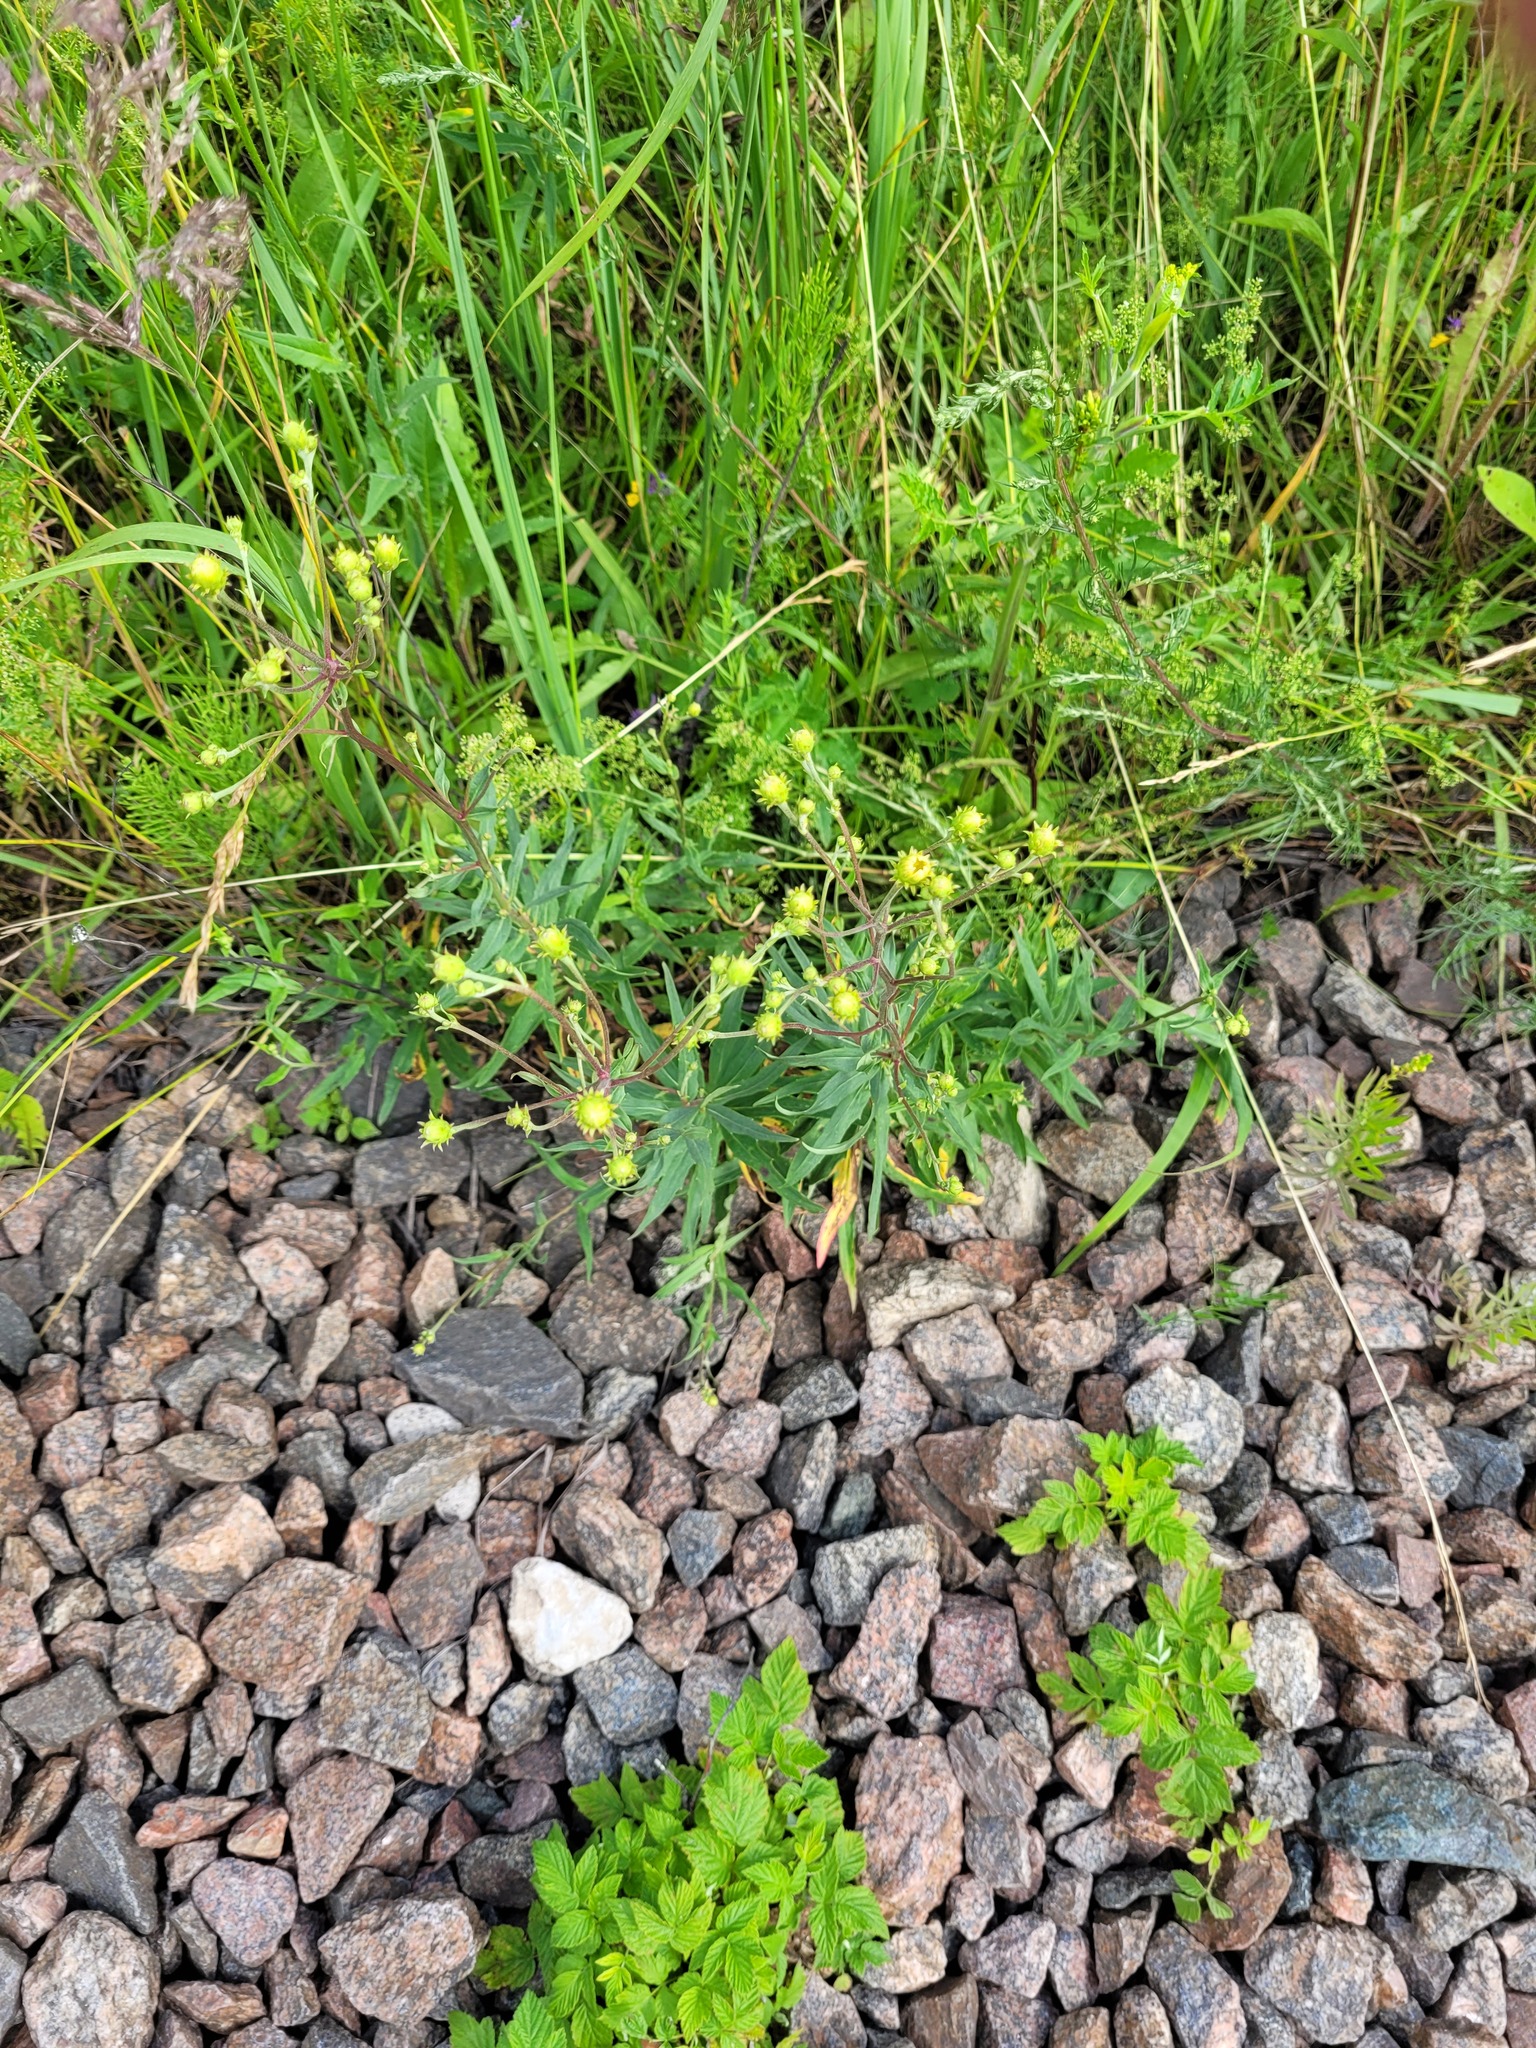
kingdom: Plantae
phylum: Tracheophyta
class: Magnoliopsida
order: Asterales
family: Asteraceae
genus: Hieracium
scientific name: Hieracium umbellatum
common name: Northern hawkweed
